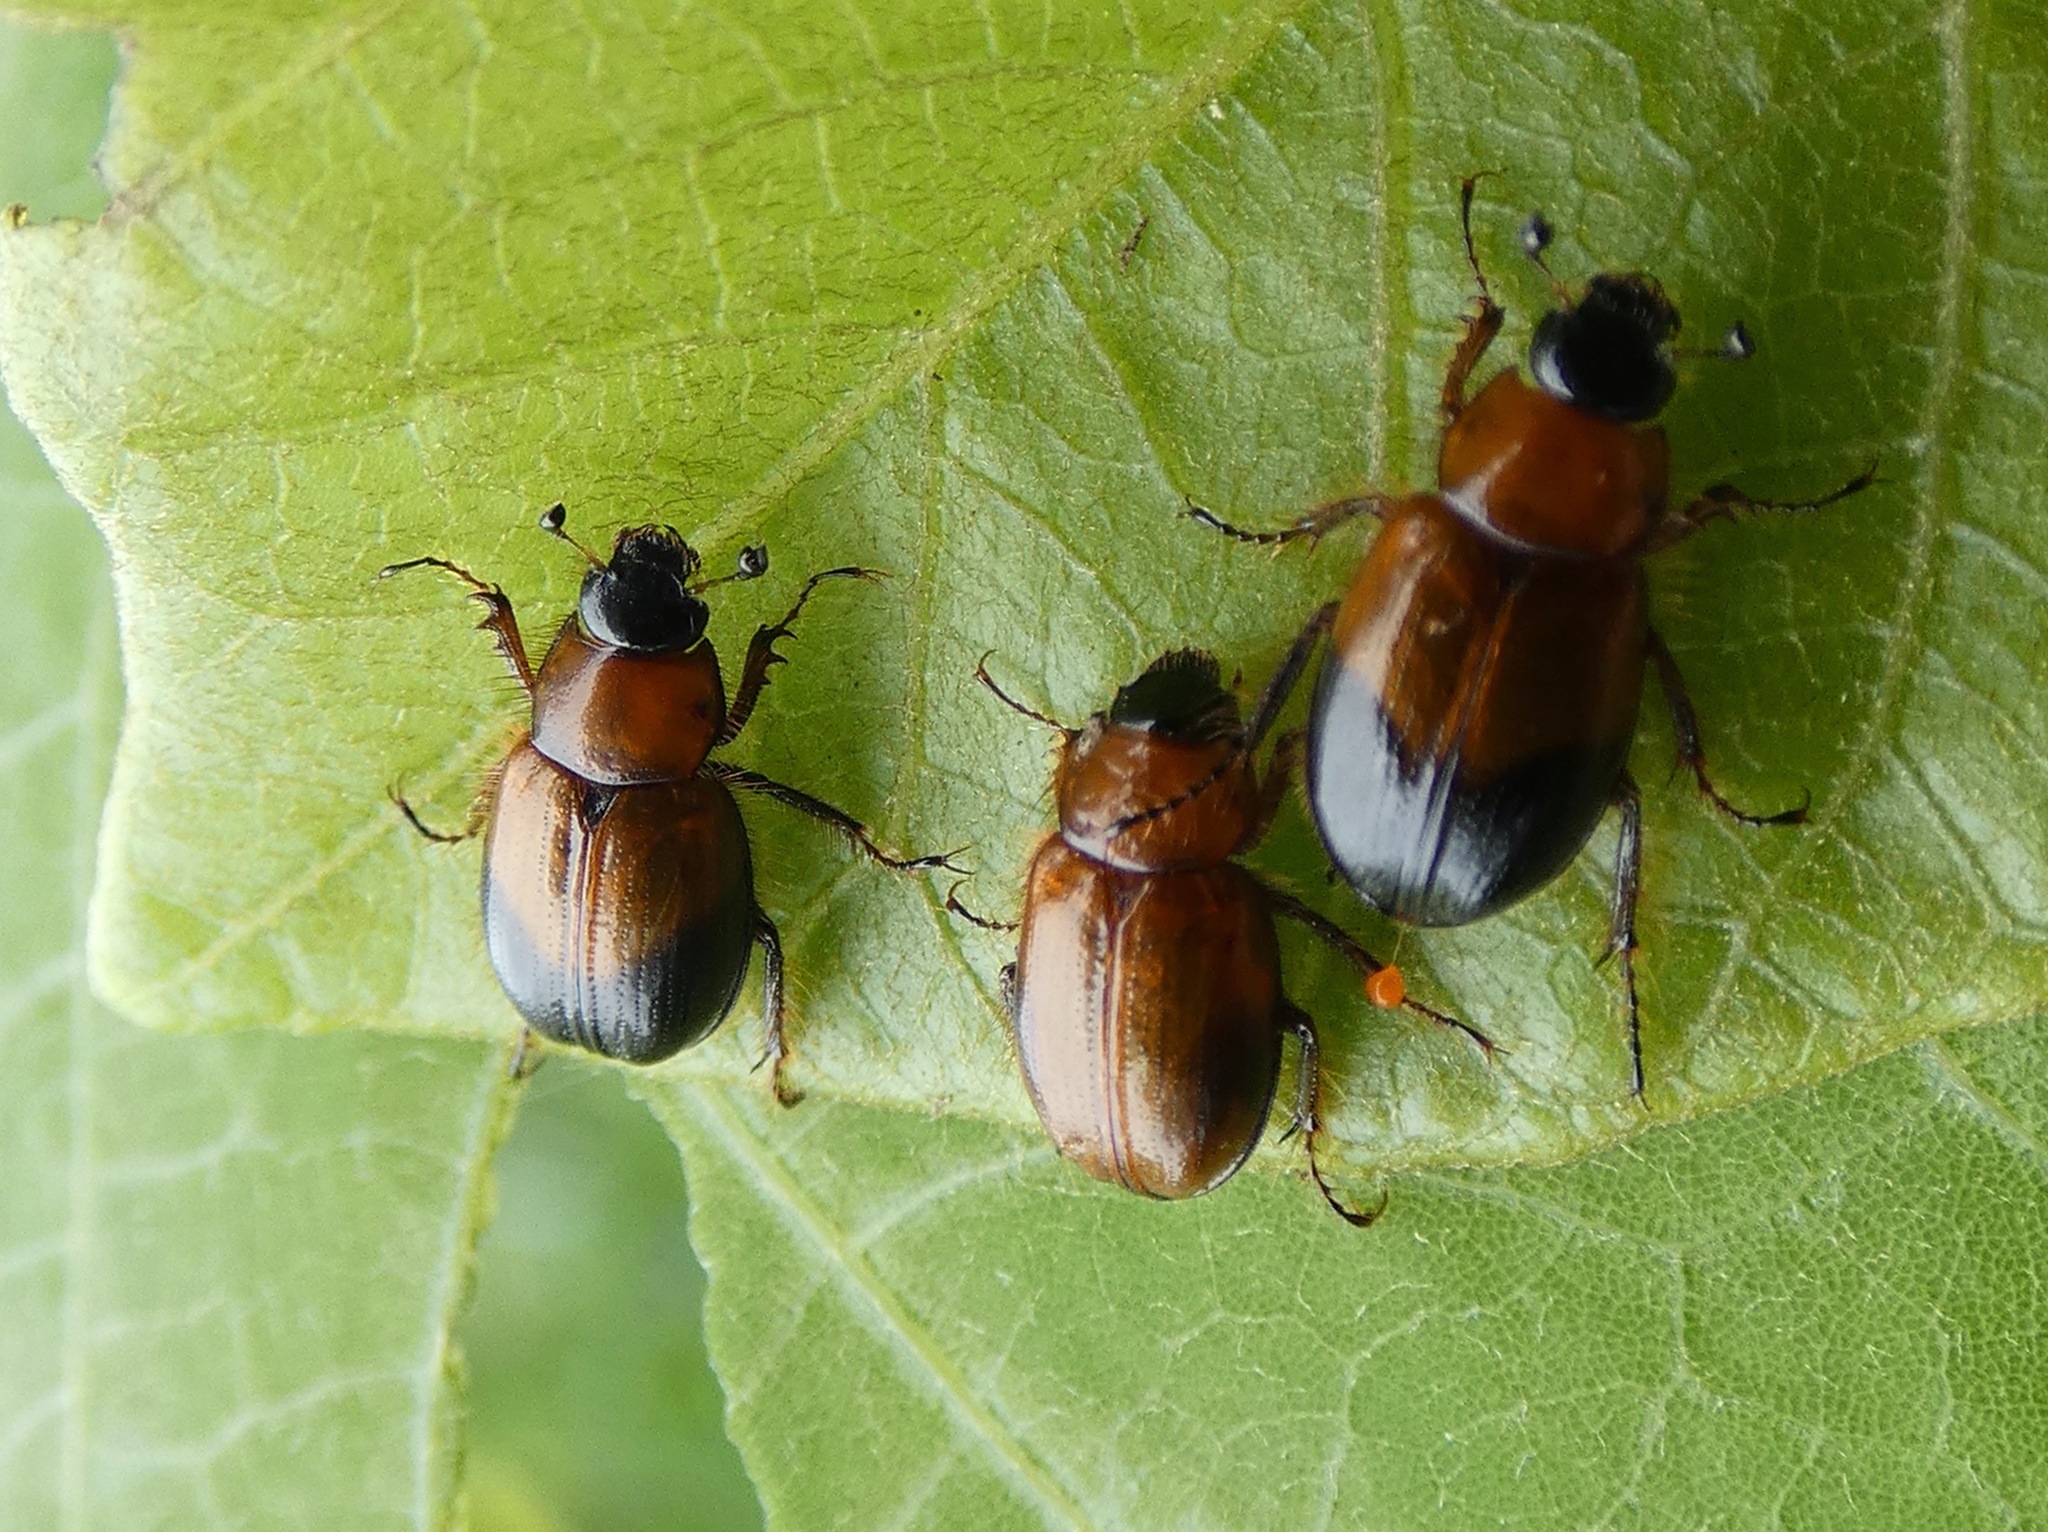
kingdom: Animalia
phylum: Arthropoda
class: Insecta
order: Coleoptera
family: Hybosoridae
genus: Dicraeodon
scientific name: Dicraeodon
